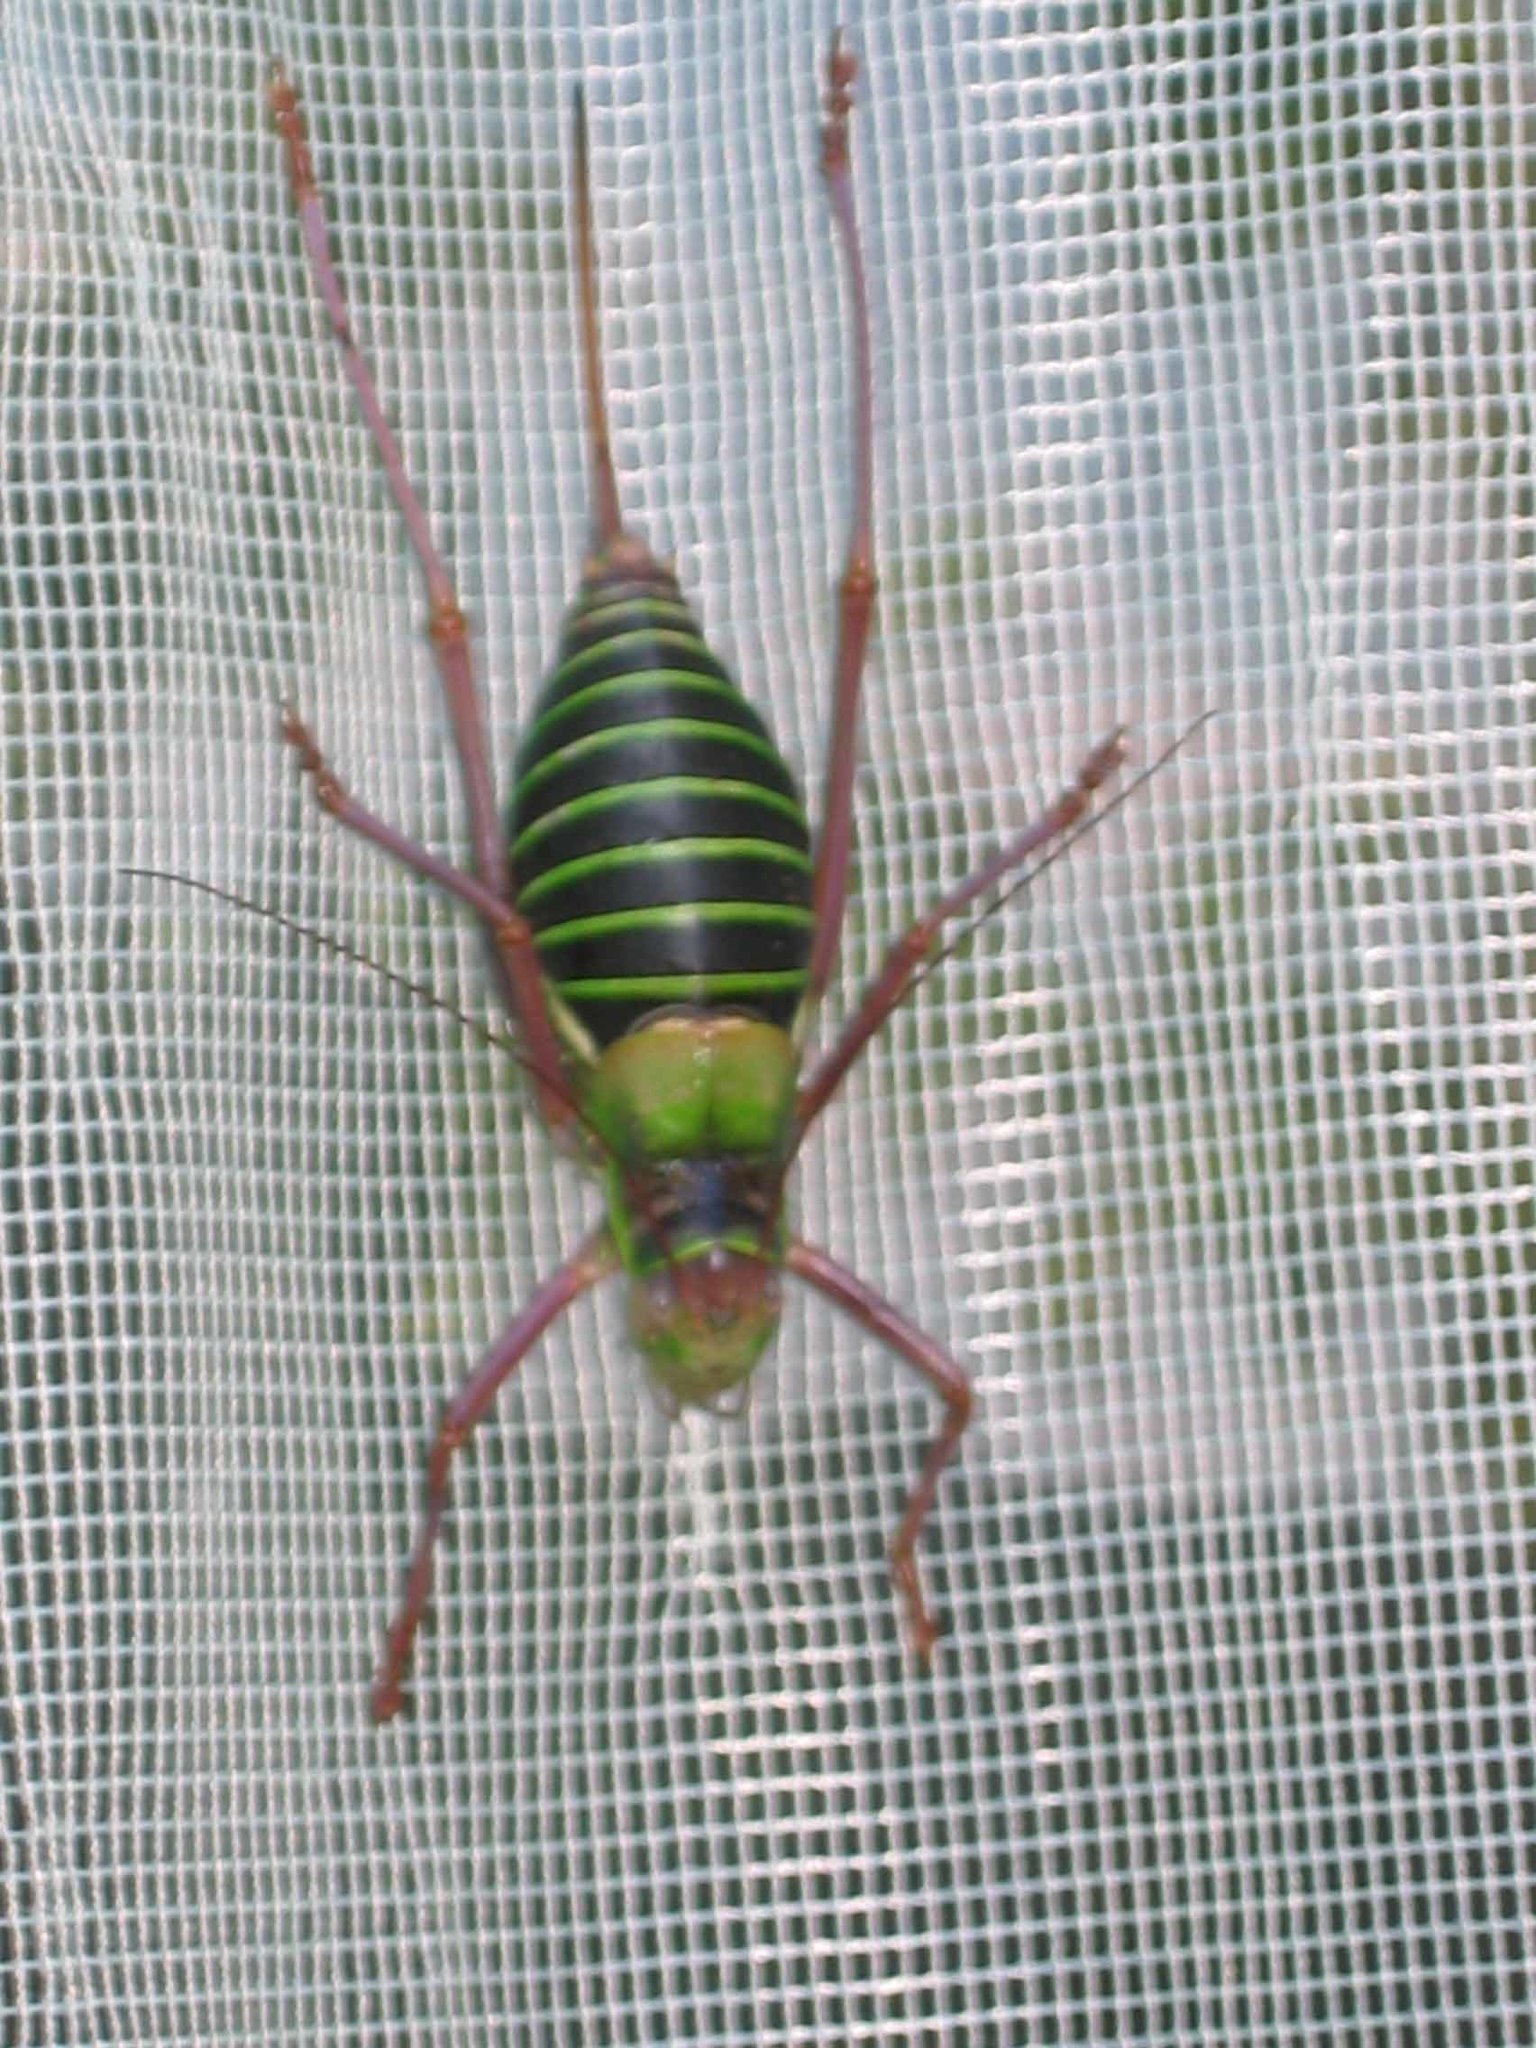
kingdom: Animalia
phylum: Arthropoda
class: Insecta
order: Orthoptera
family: Tettigoniidae
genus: Ephippiger
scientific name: Ephippiger diurnus
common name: Western saddle bush-cricket
